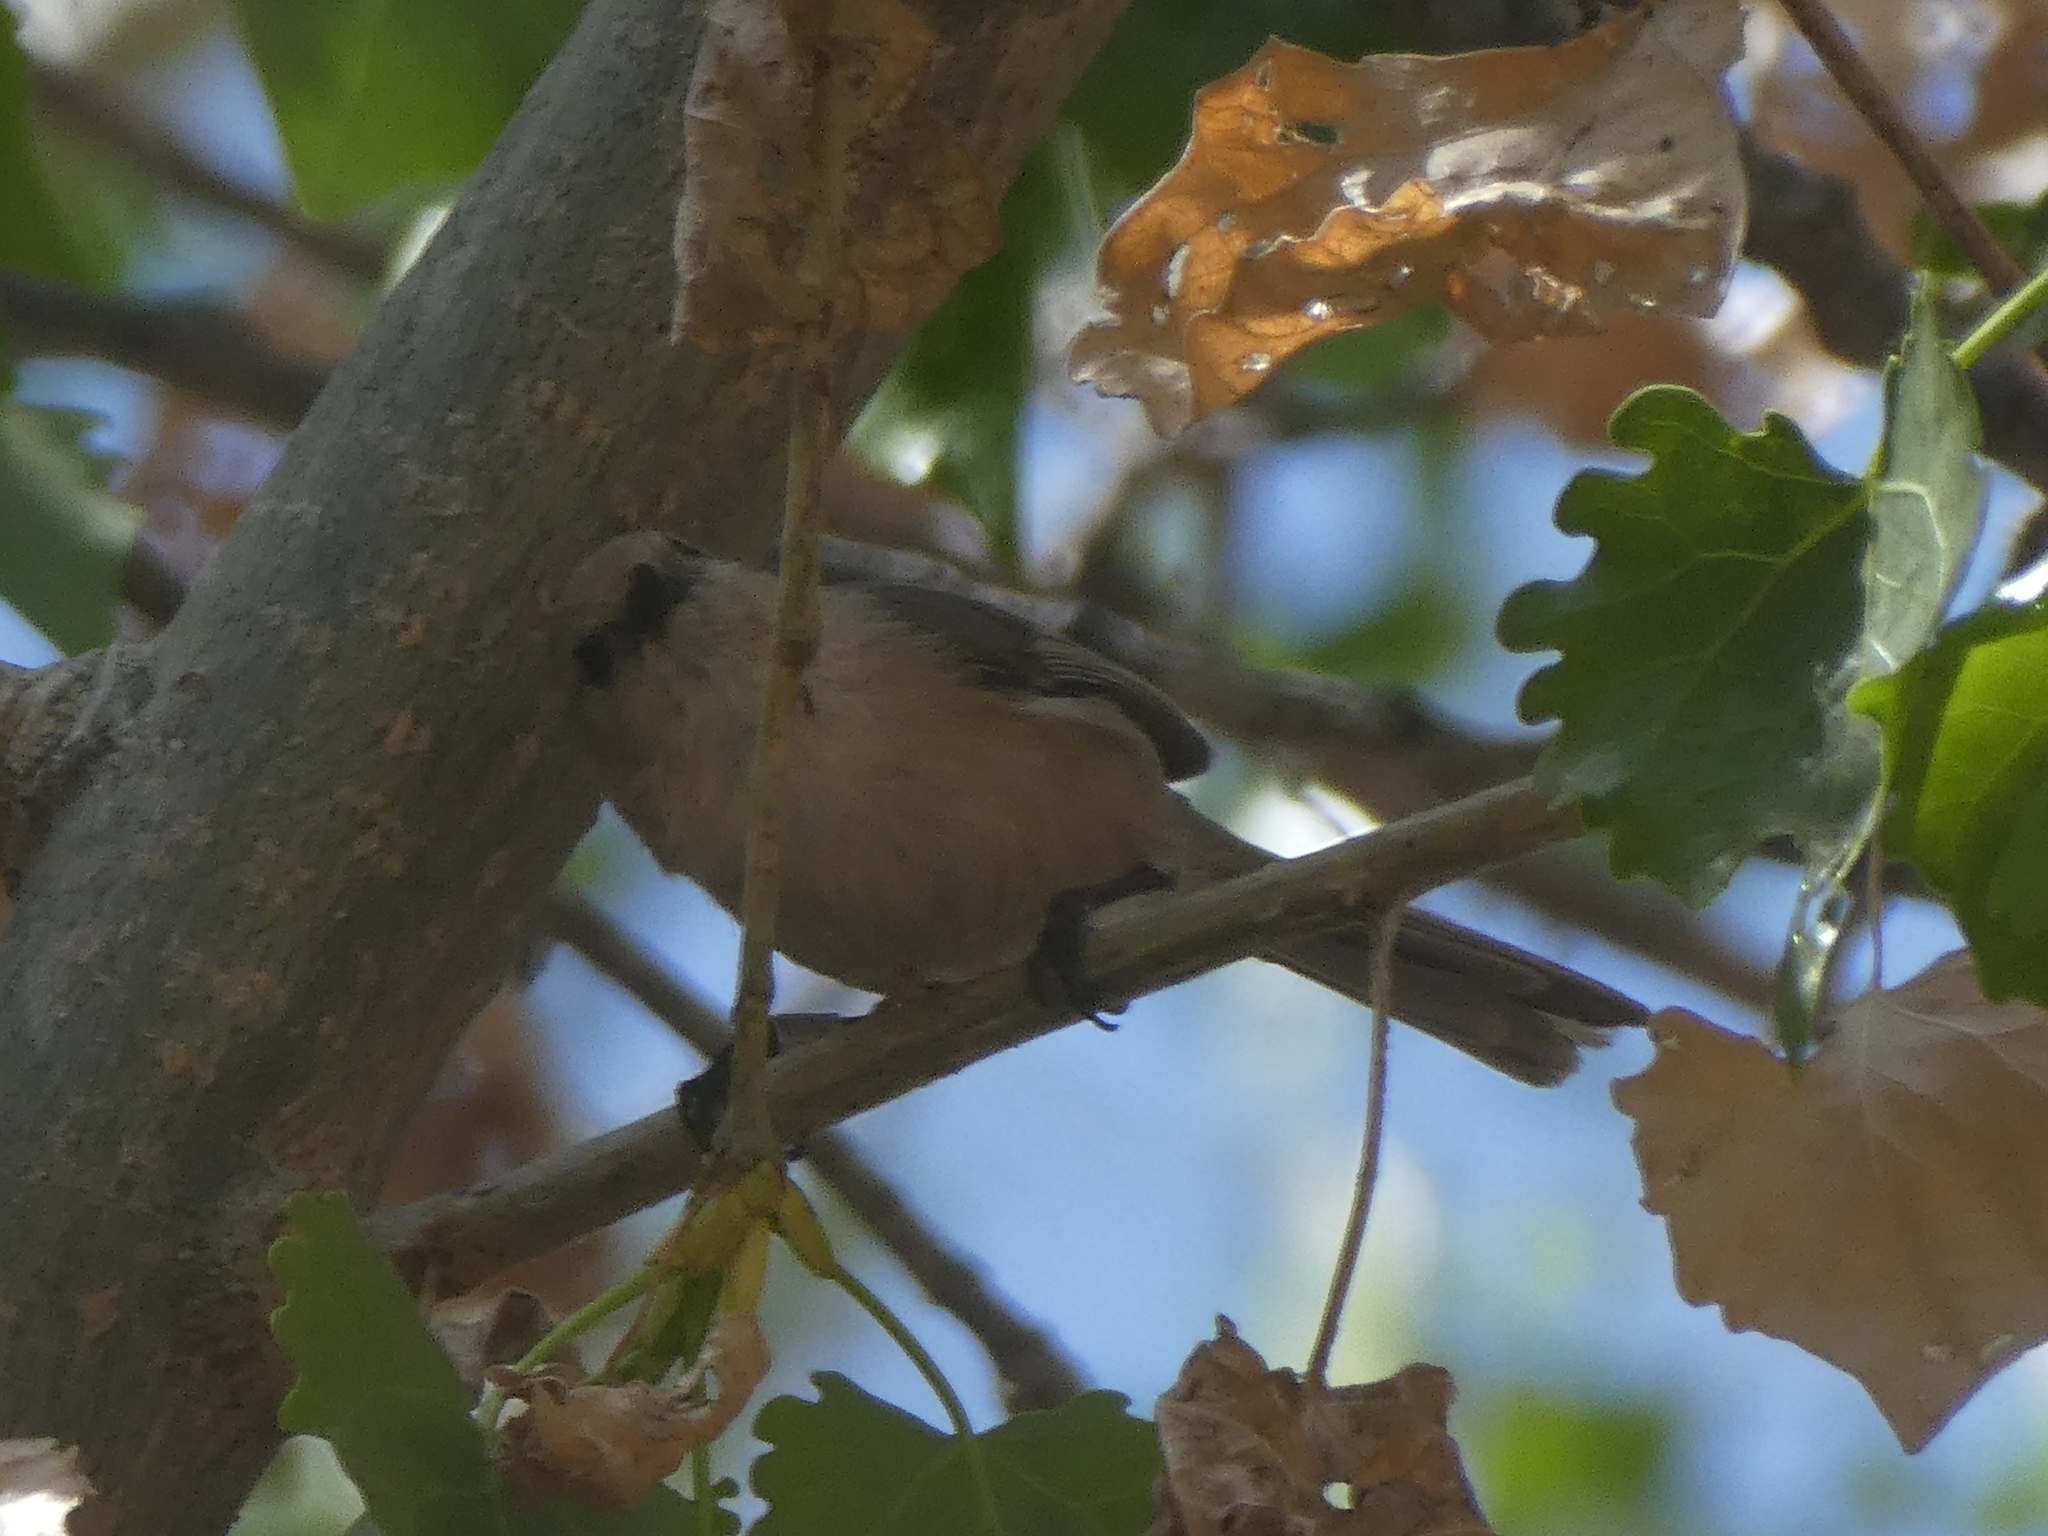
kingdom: Animalia
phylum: Chordata
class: Aves
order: Passeriformes
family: Aegithalidae
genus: Psaltriparus
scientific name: Psaltriparus minimus
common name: American bushtit
